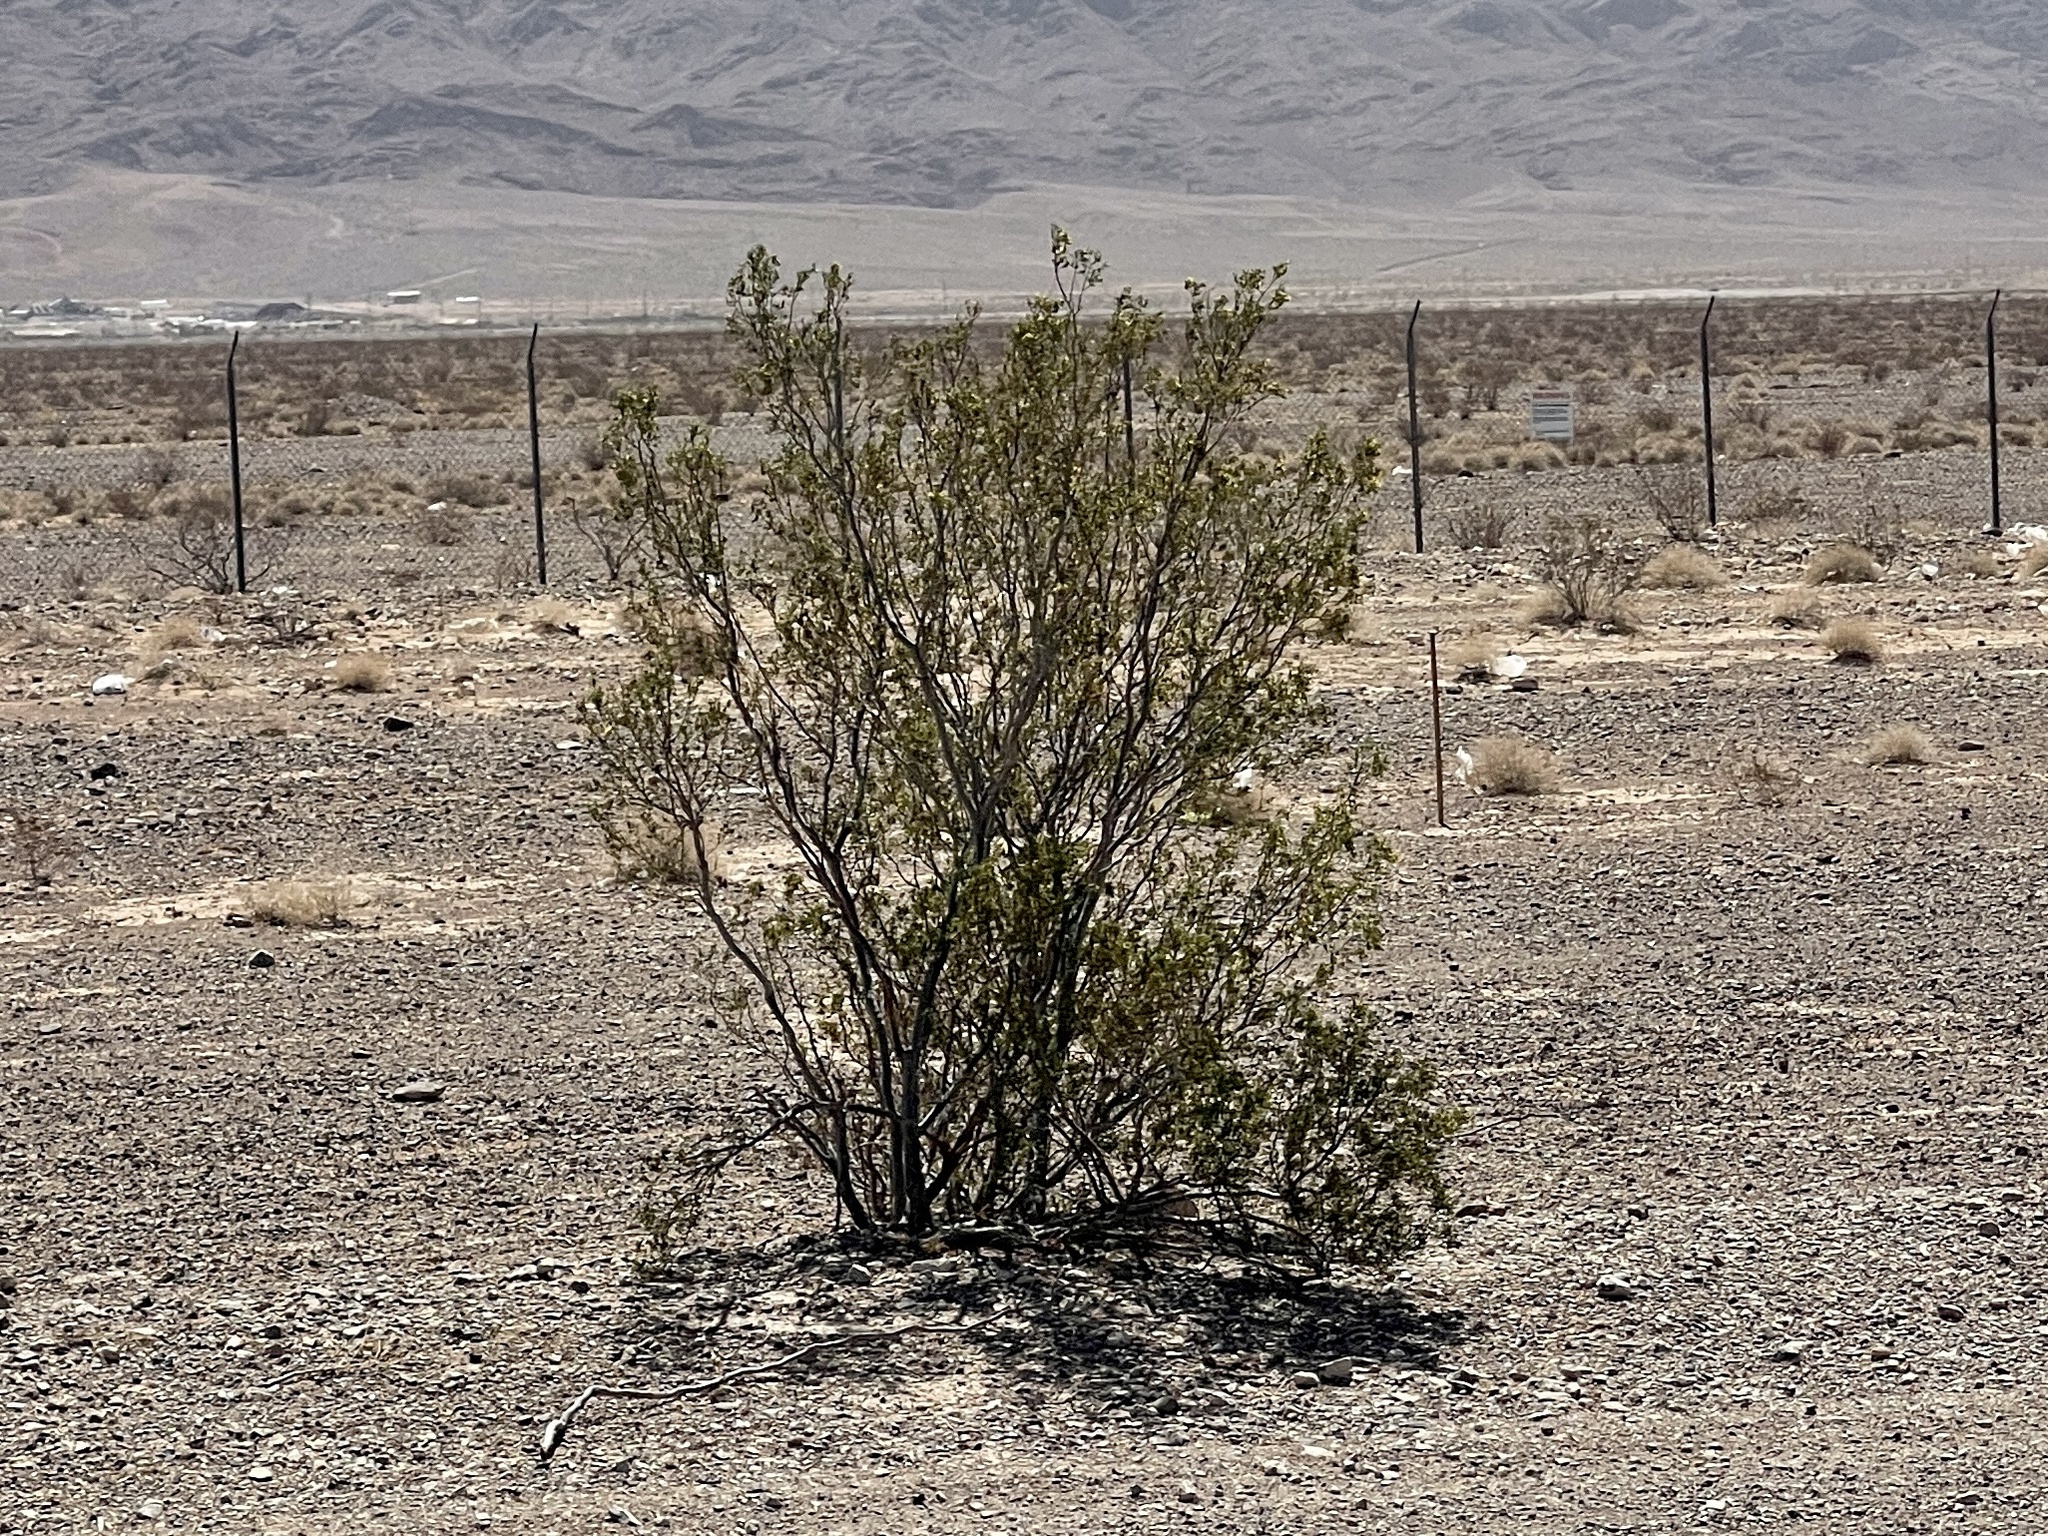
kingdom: Plantae
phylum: Tracheophyta
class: Magnoliopsida
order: Zygophyllales
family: Zygophyllaceae
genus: Larrea
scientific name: Larrea tridentata
